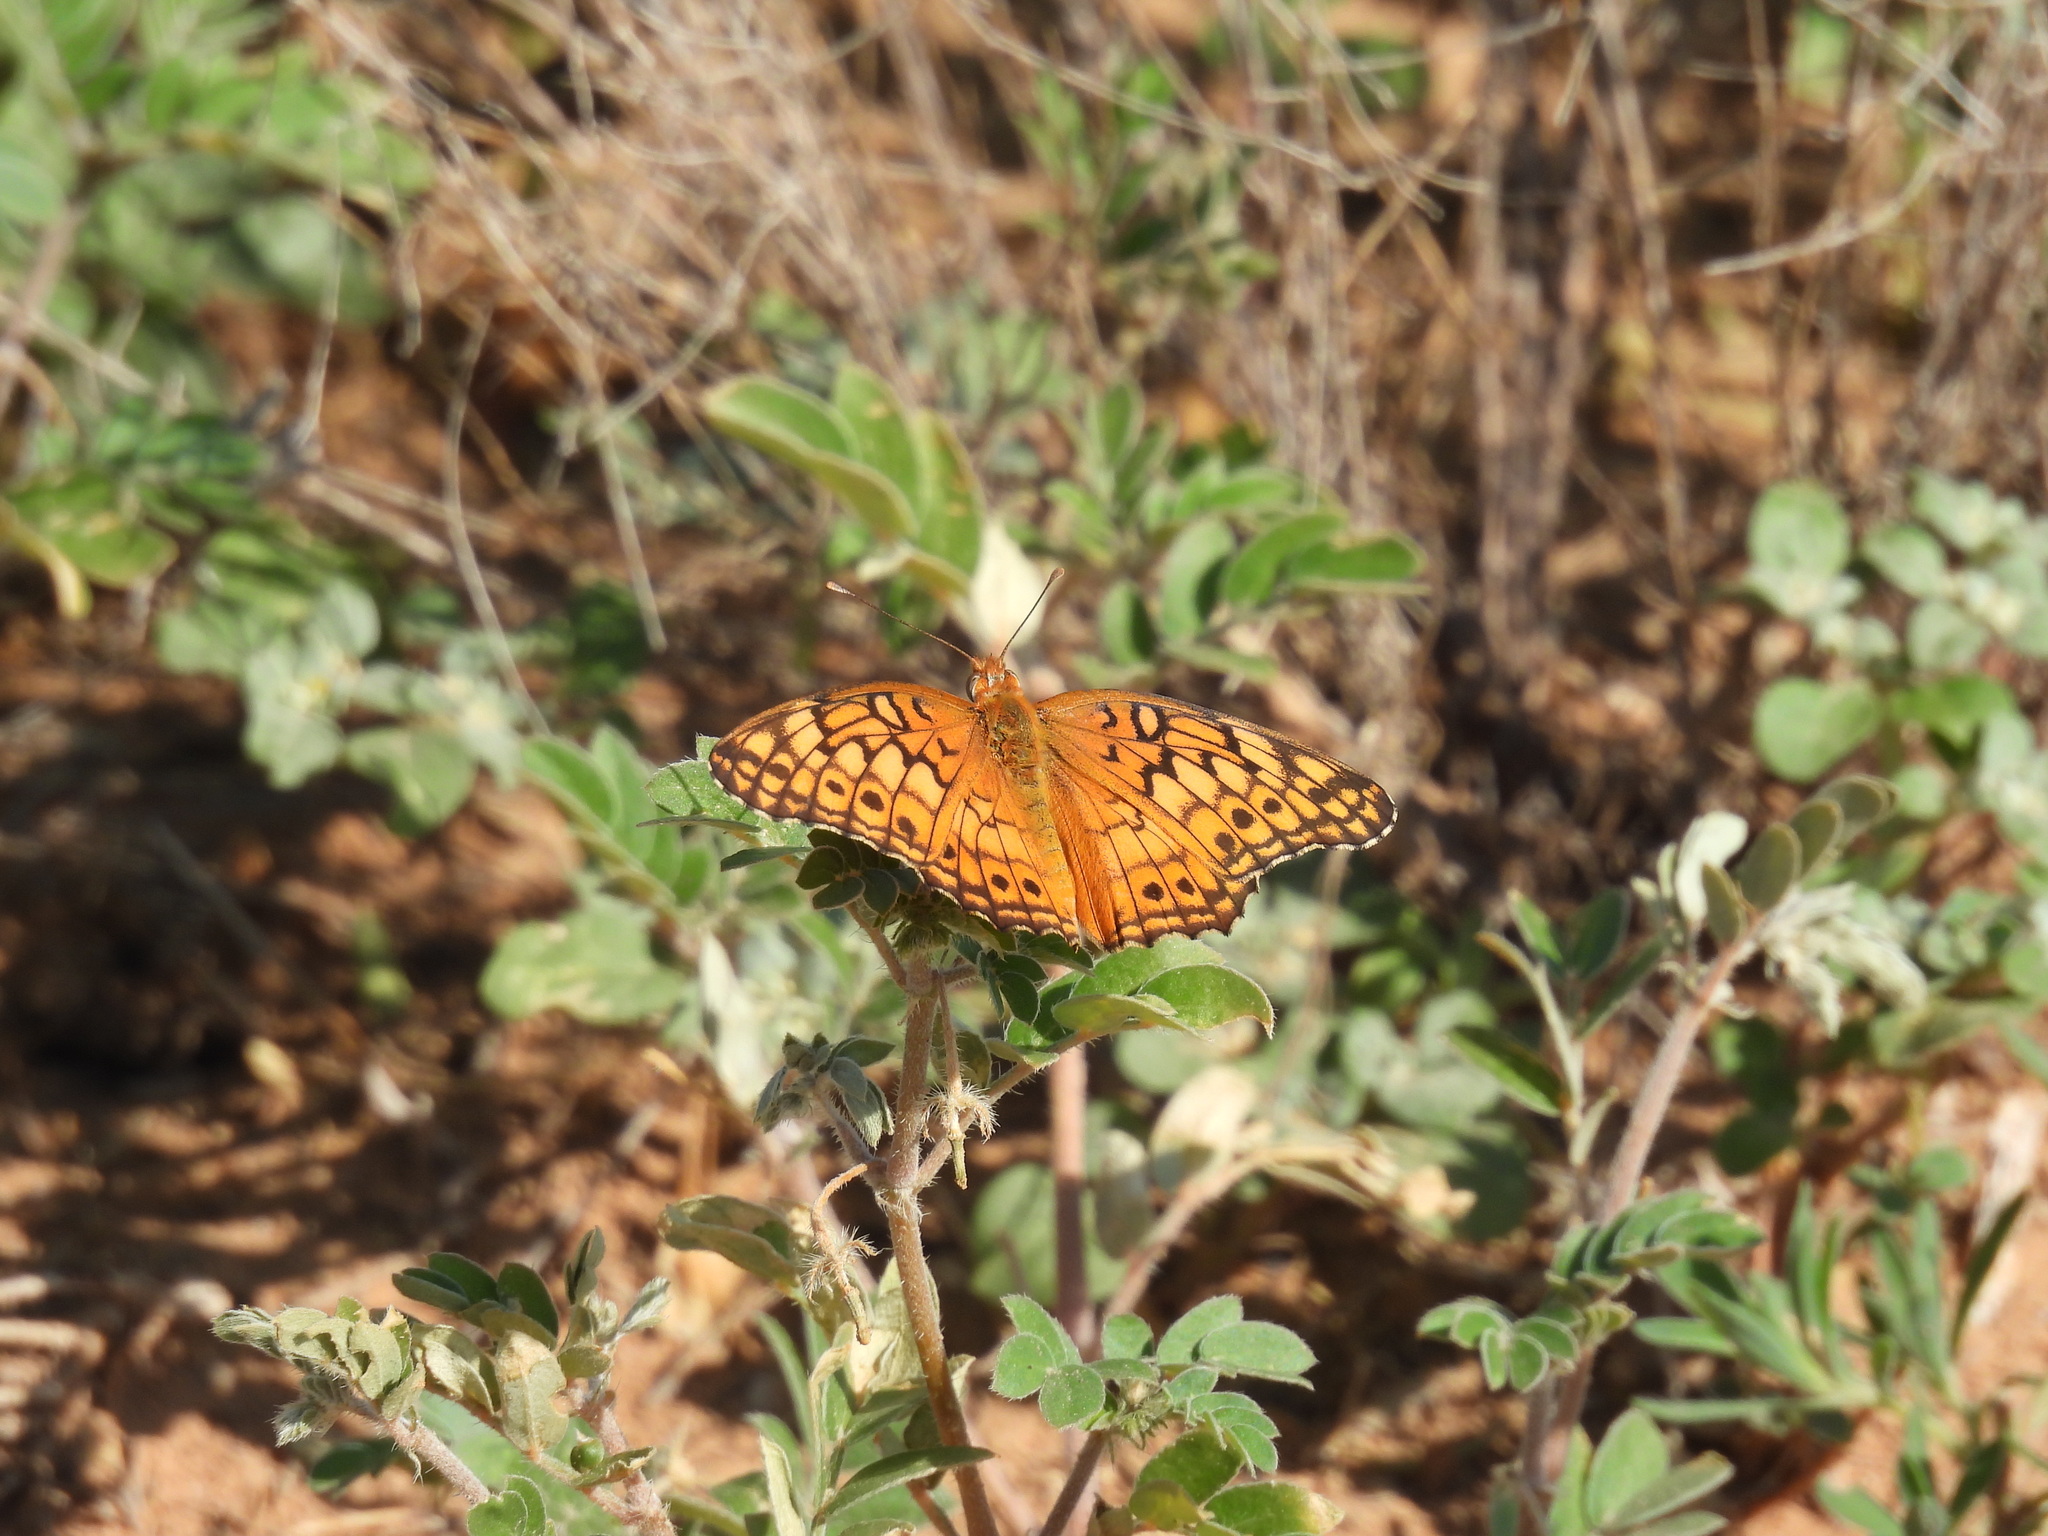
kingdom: Animalia
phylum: Arthropoda
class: Insecta
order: Lepidoptera
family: Nymphalidae
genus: Euptoieta
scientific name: Euptoieta claudia
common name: Variegated fritillary
